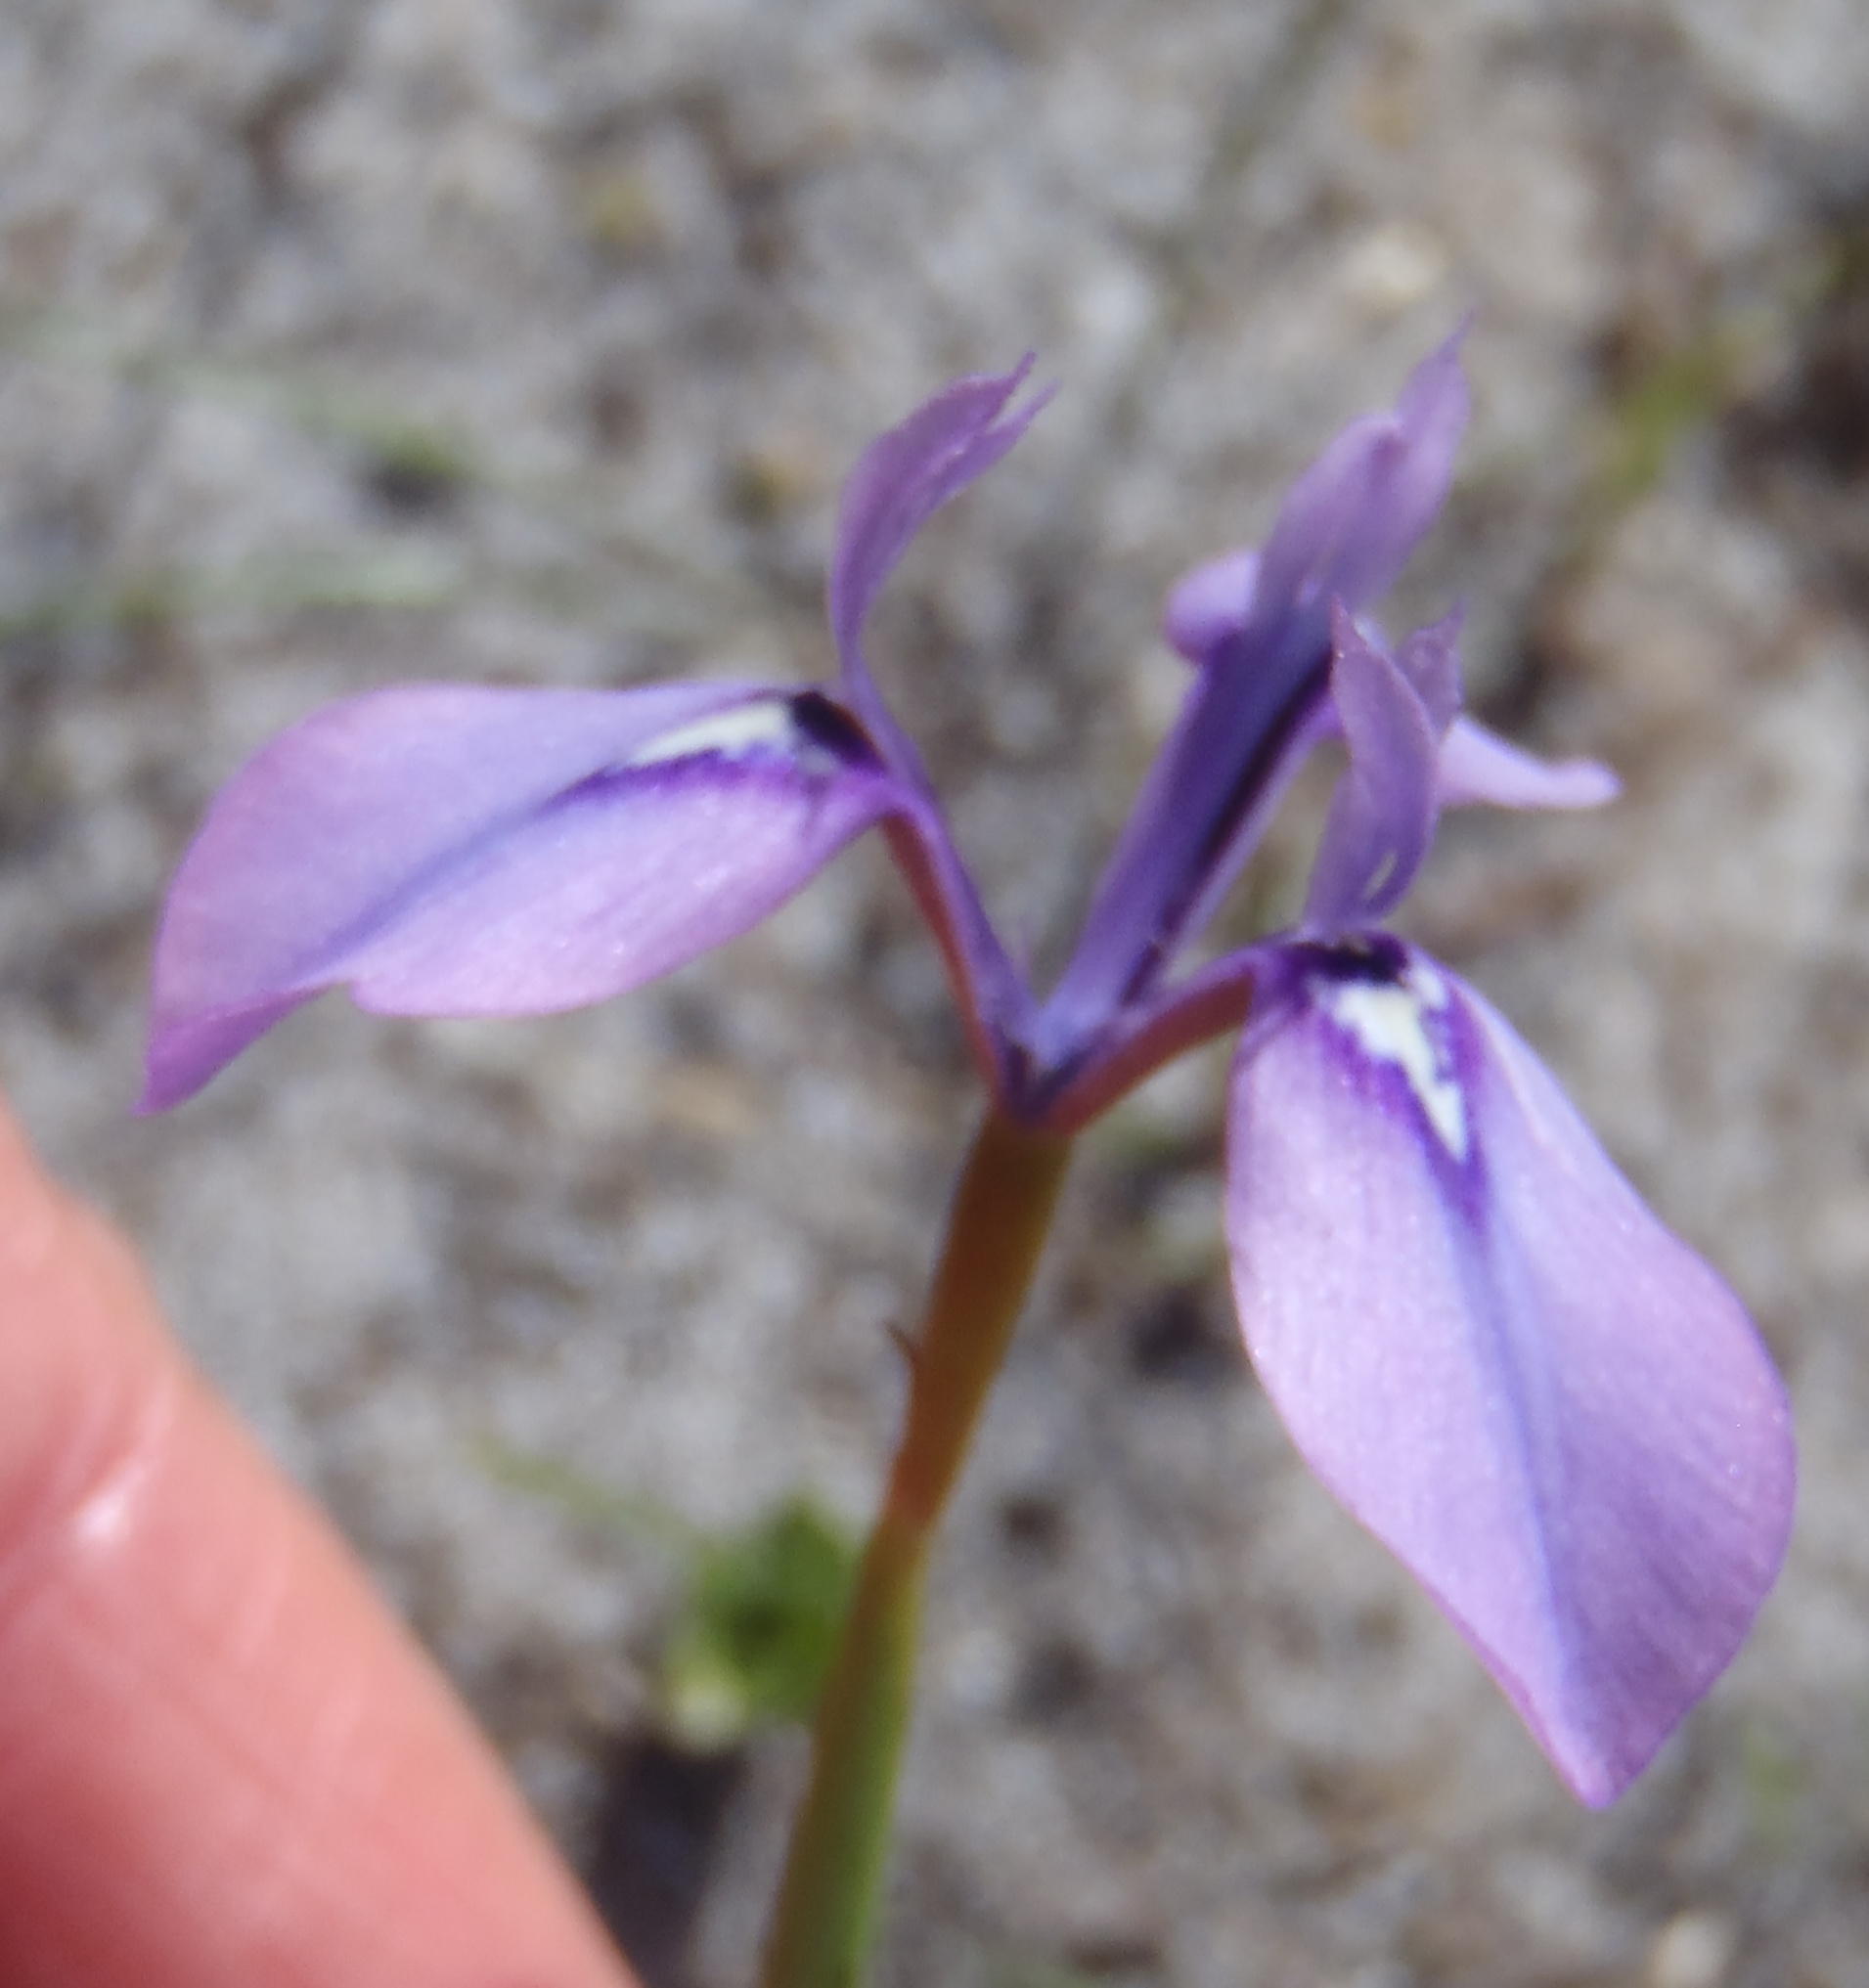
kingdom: Plantae
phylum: Tracheophyta
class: Liliopsida
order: Asparagales
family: Iridaceae
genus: Moraea
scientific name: Moraea tripetala
